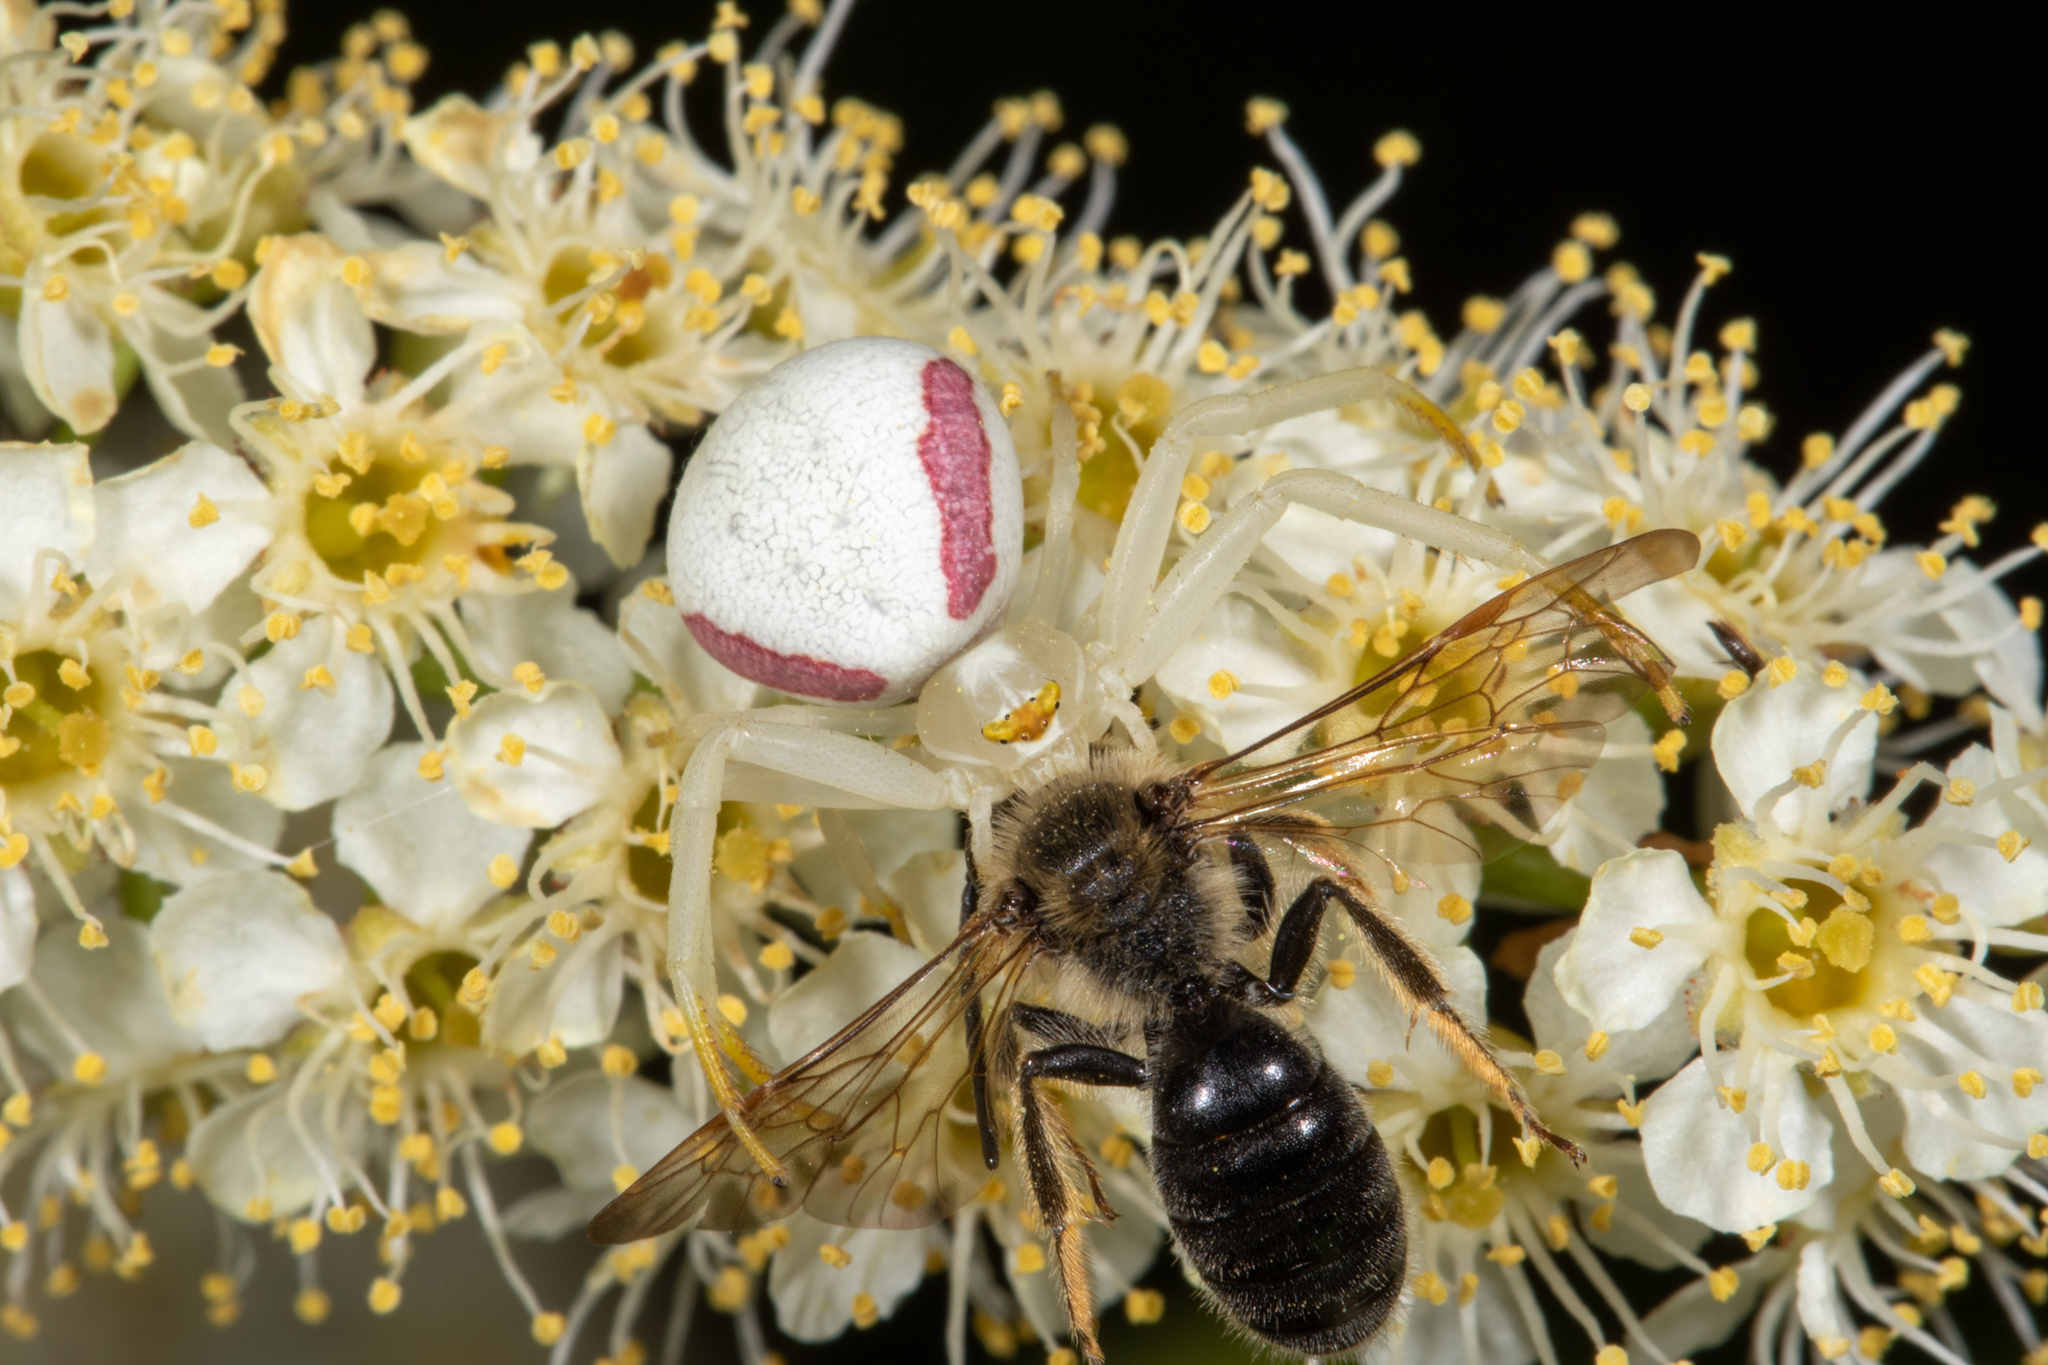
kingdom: Animalia
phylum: Arthropoda
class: Arachnida
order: Araneae
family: Thomisidae
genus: Misumena
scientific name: Misumena vatia
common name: Goldenrod crab spider
